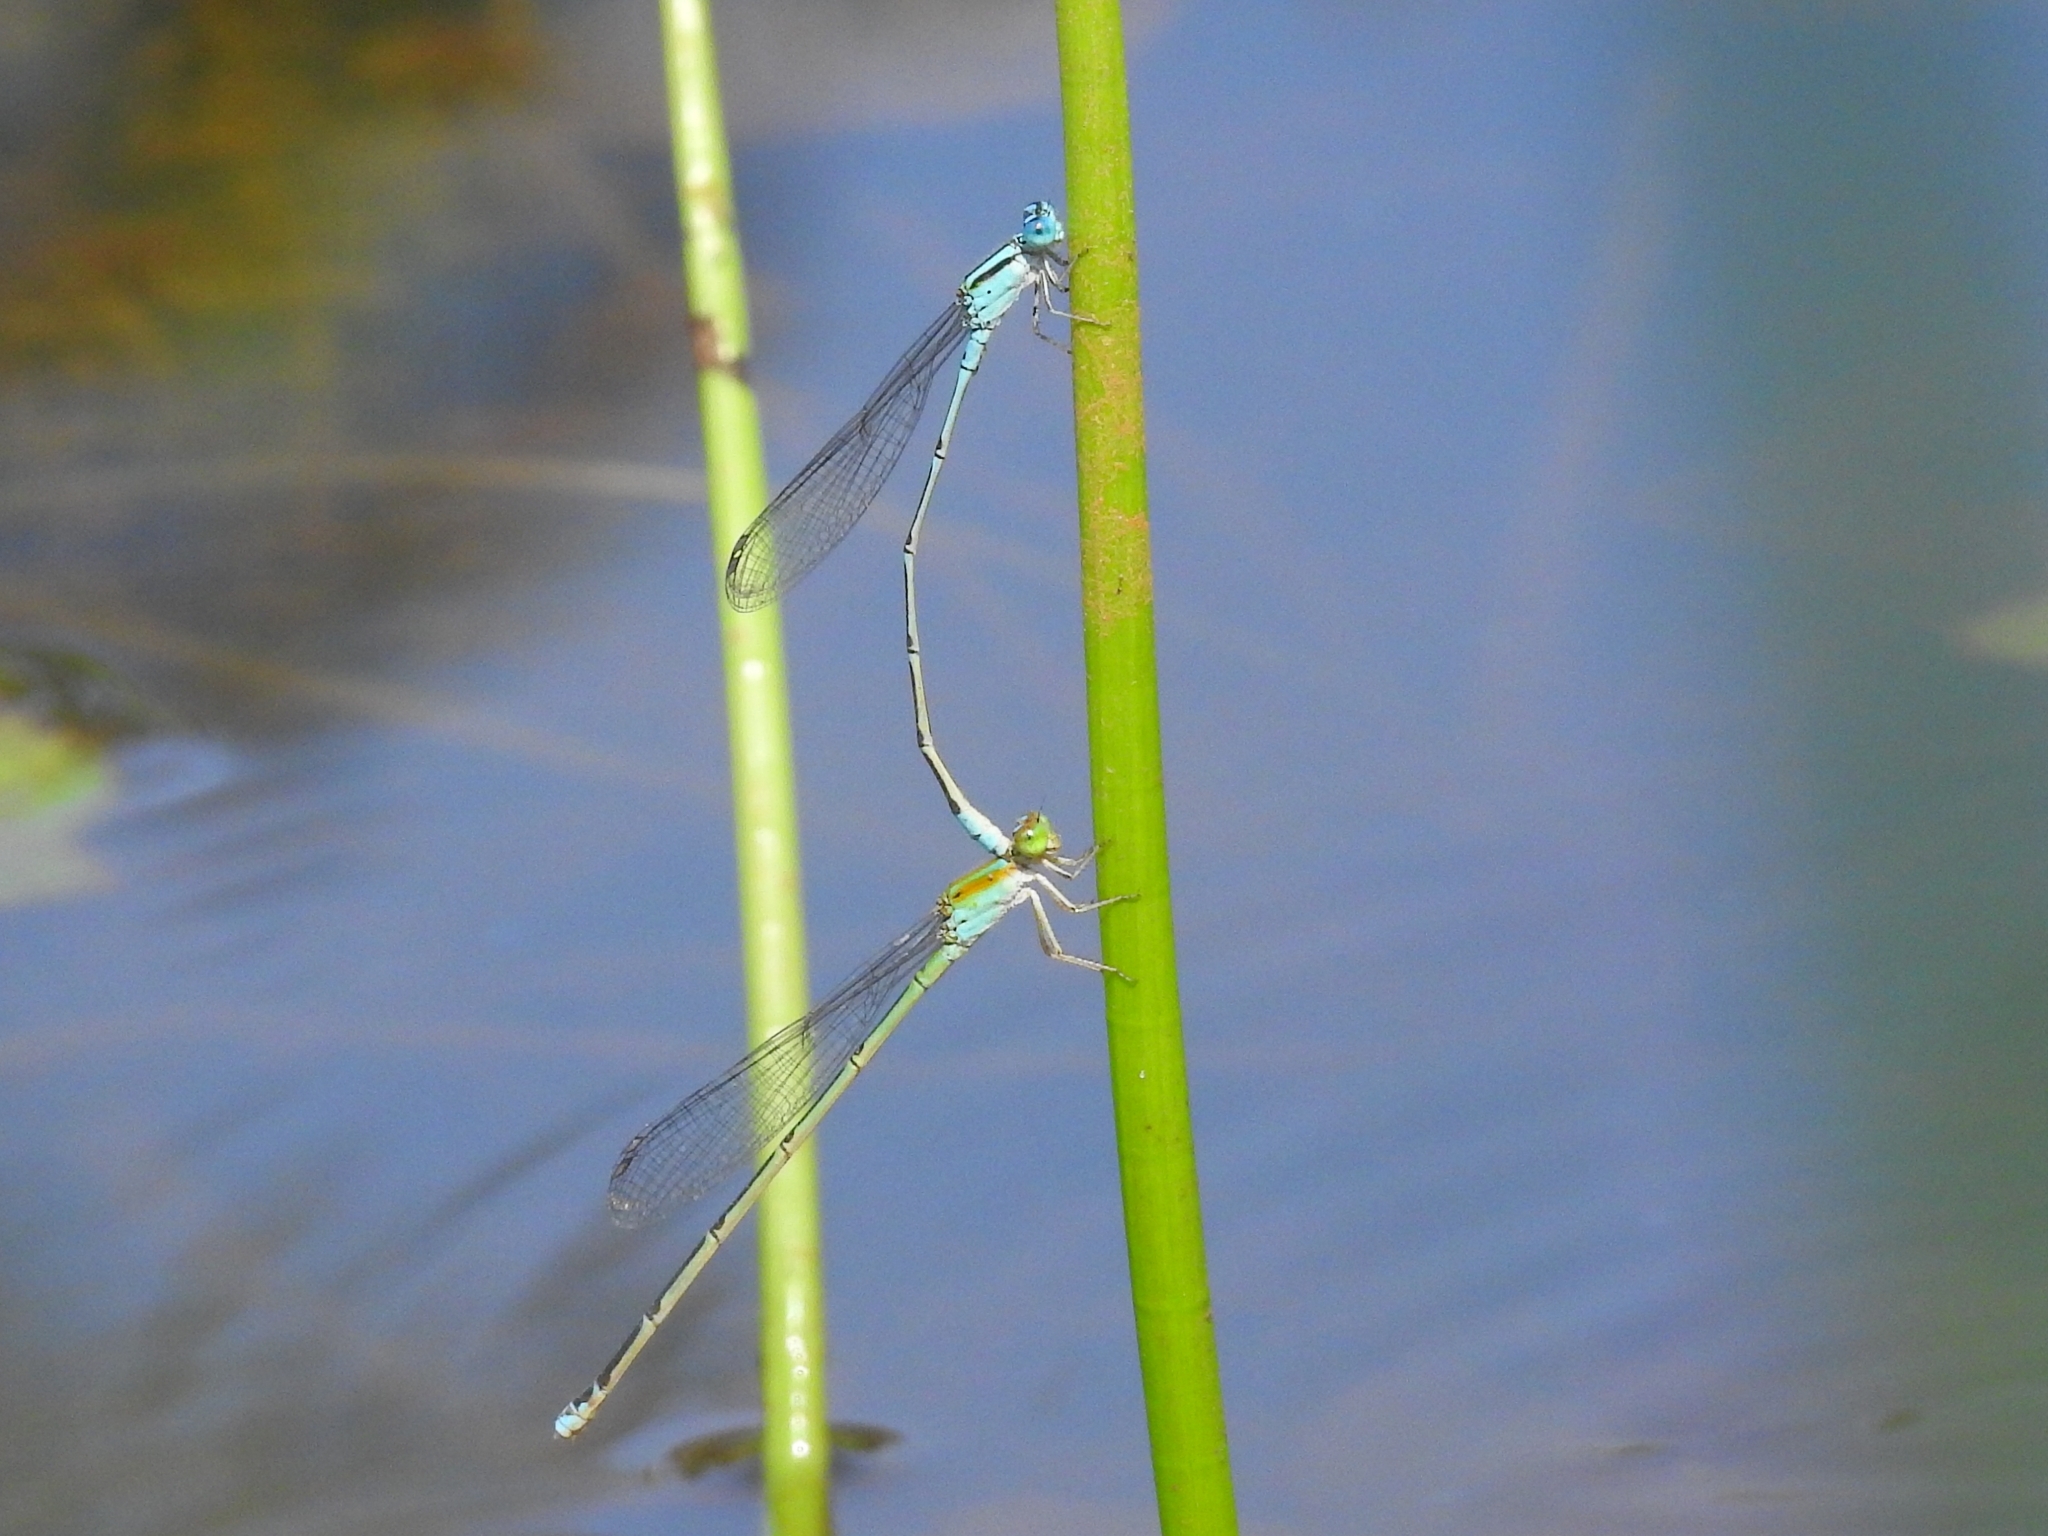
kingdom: Animalia
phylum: Arthropoda
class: Insecta
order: Odonata
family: Coenagrionidae
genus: Pseudagrion
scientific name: Pseudagrion microcephalum
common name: Blue riverdamsel
